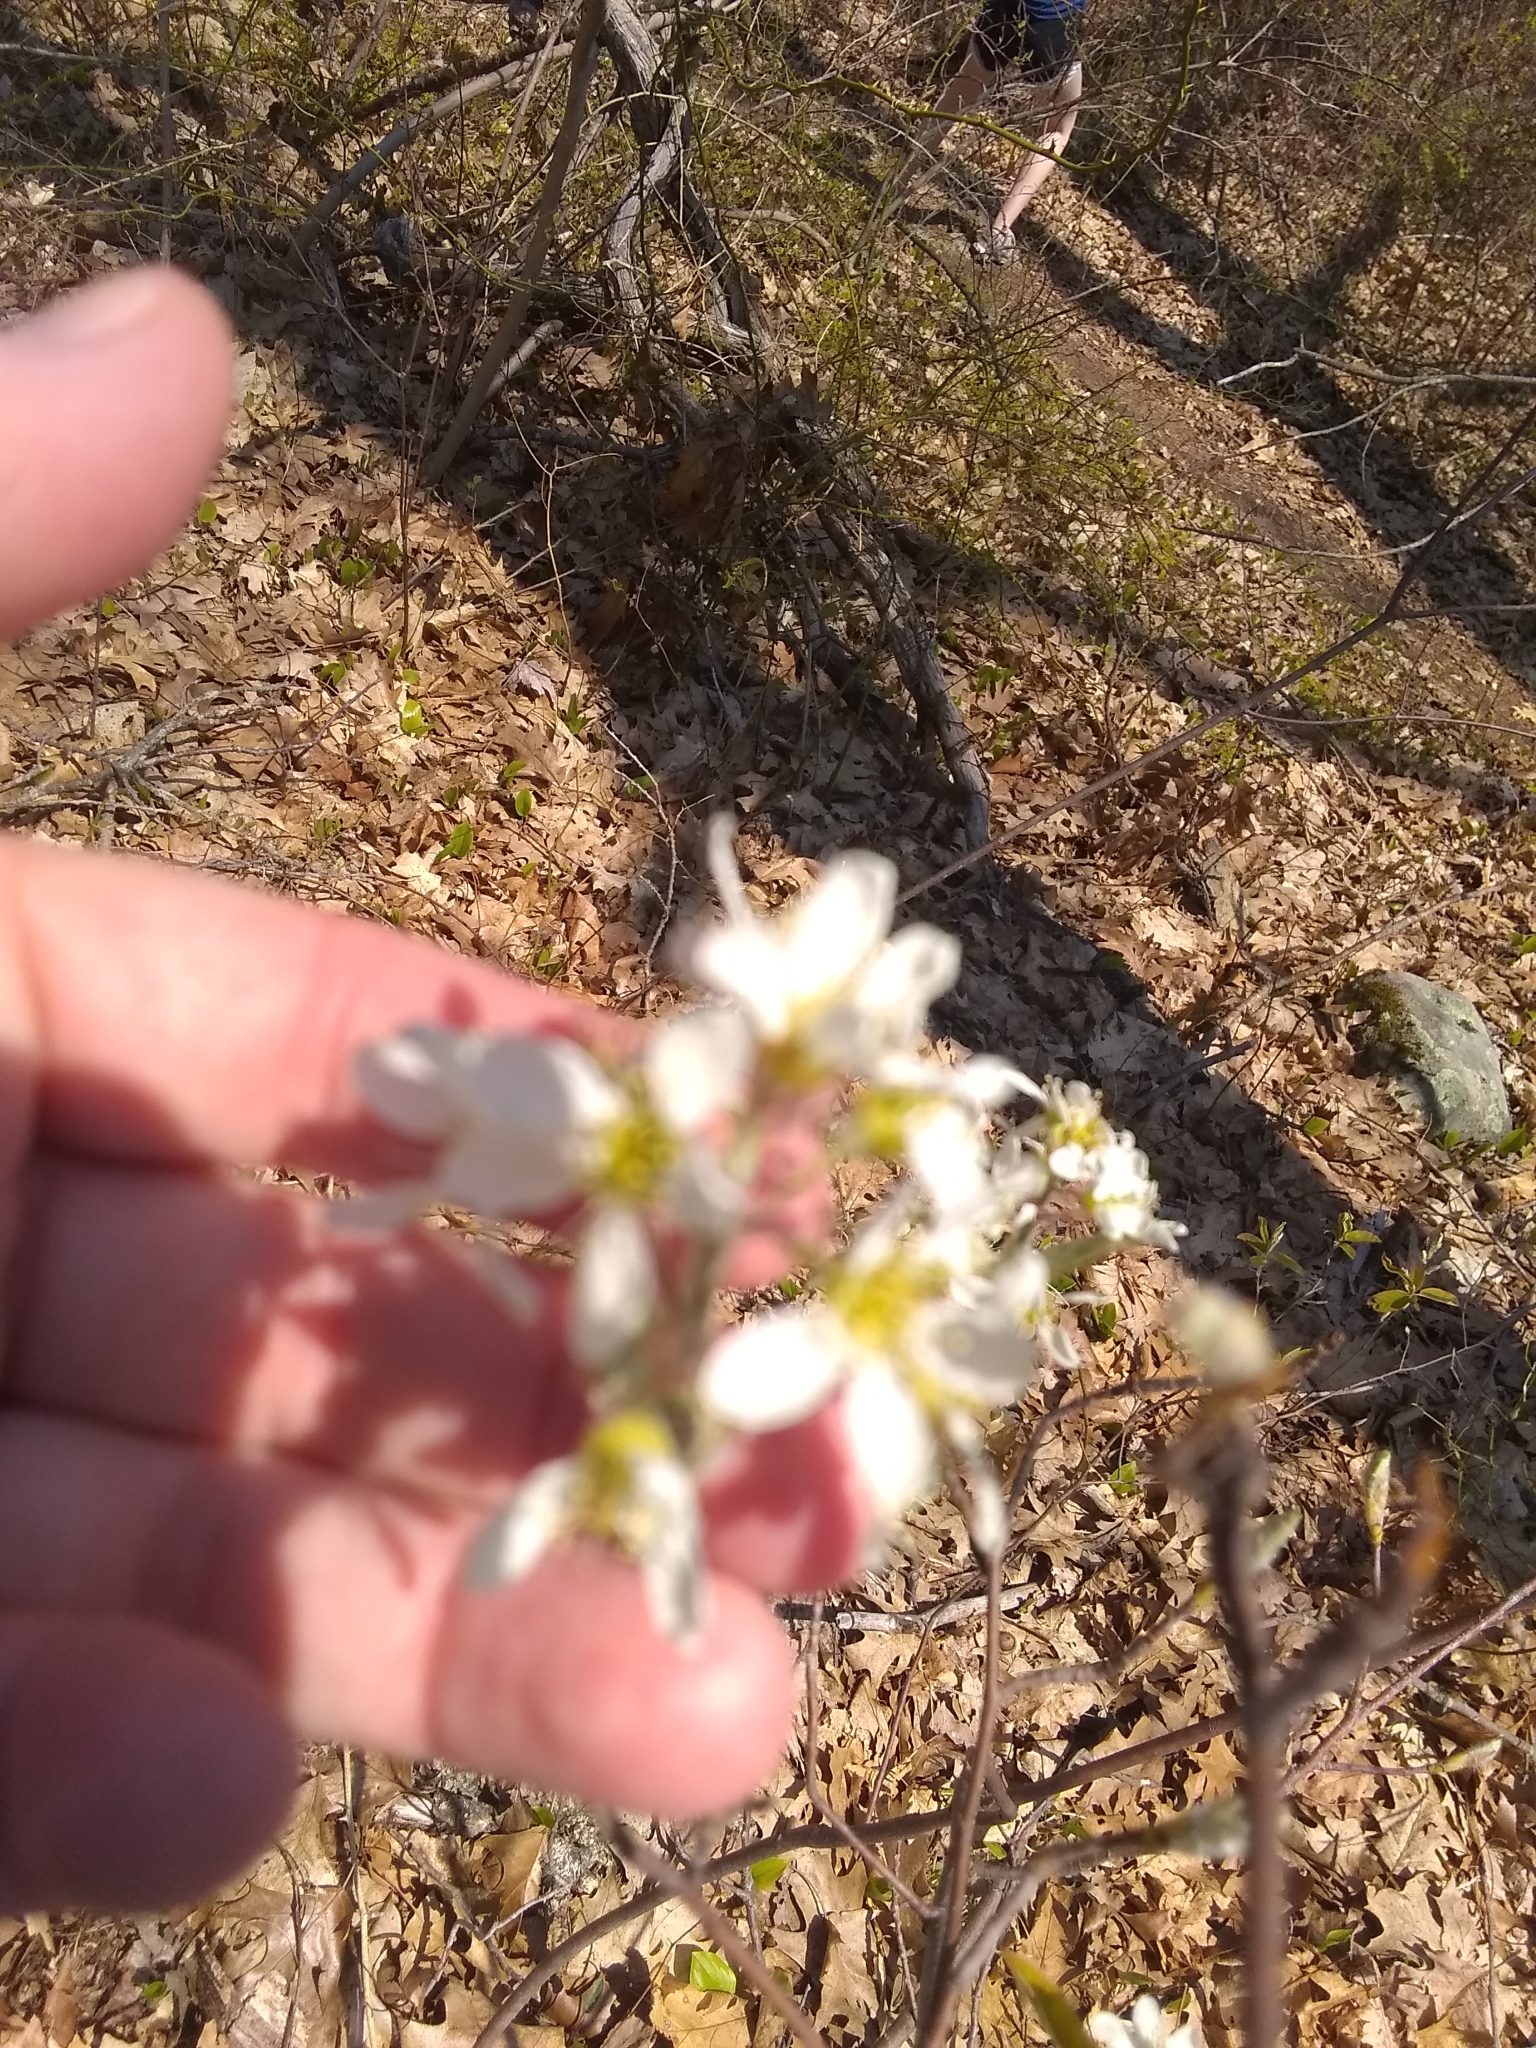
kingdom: Plantae
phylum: Tracheophyta
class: Magnoliopsida
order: Rosales
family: Rosaceae
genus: Amelanchier
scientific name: Amelanchier arborea
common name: Downy serviceberry
